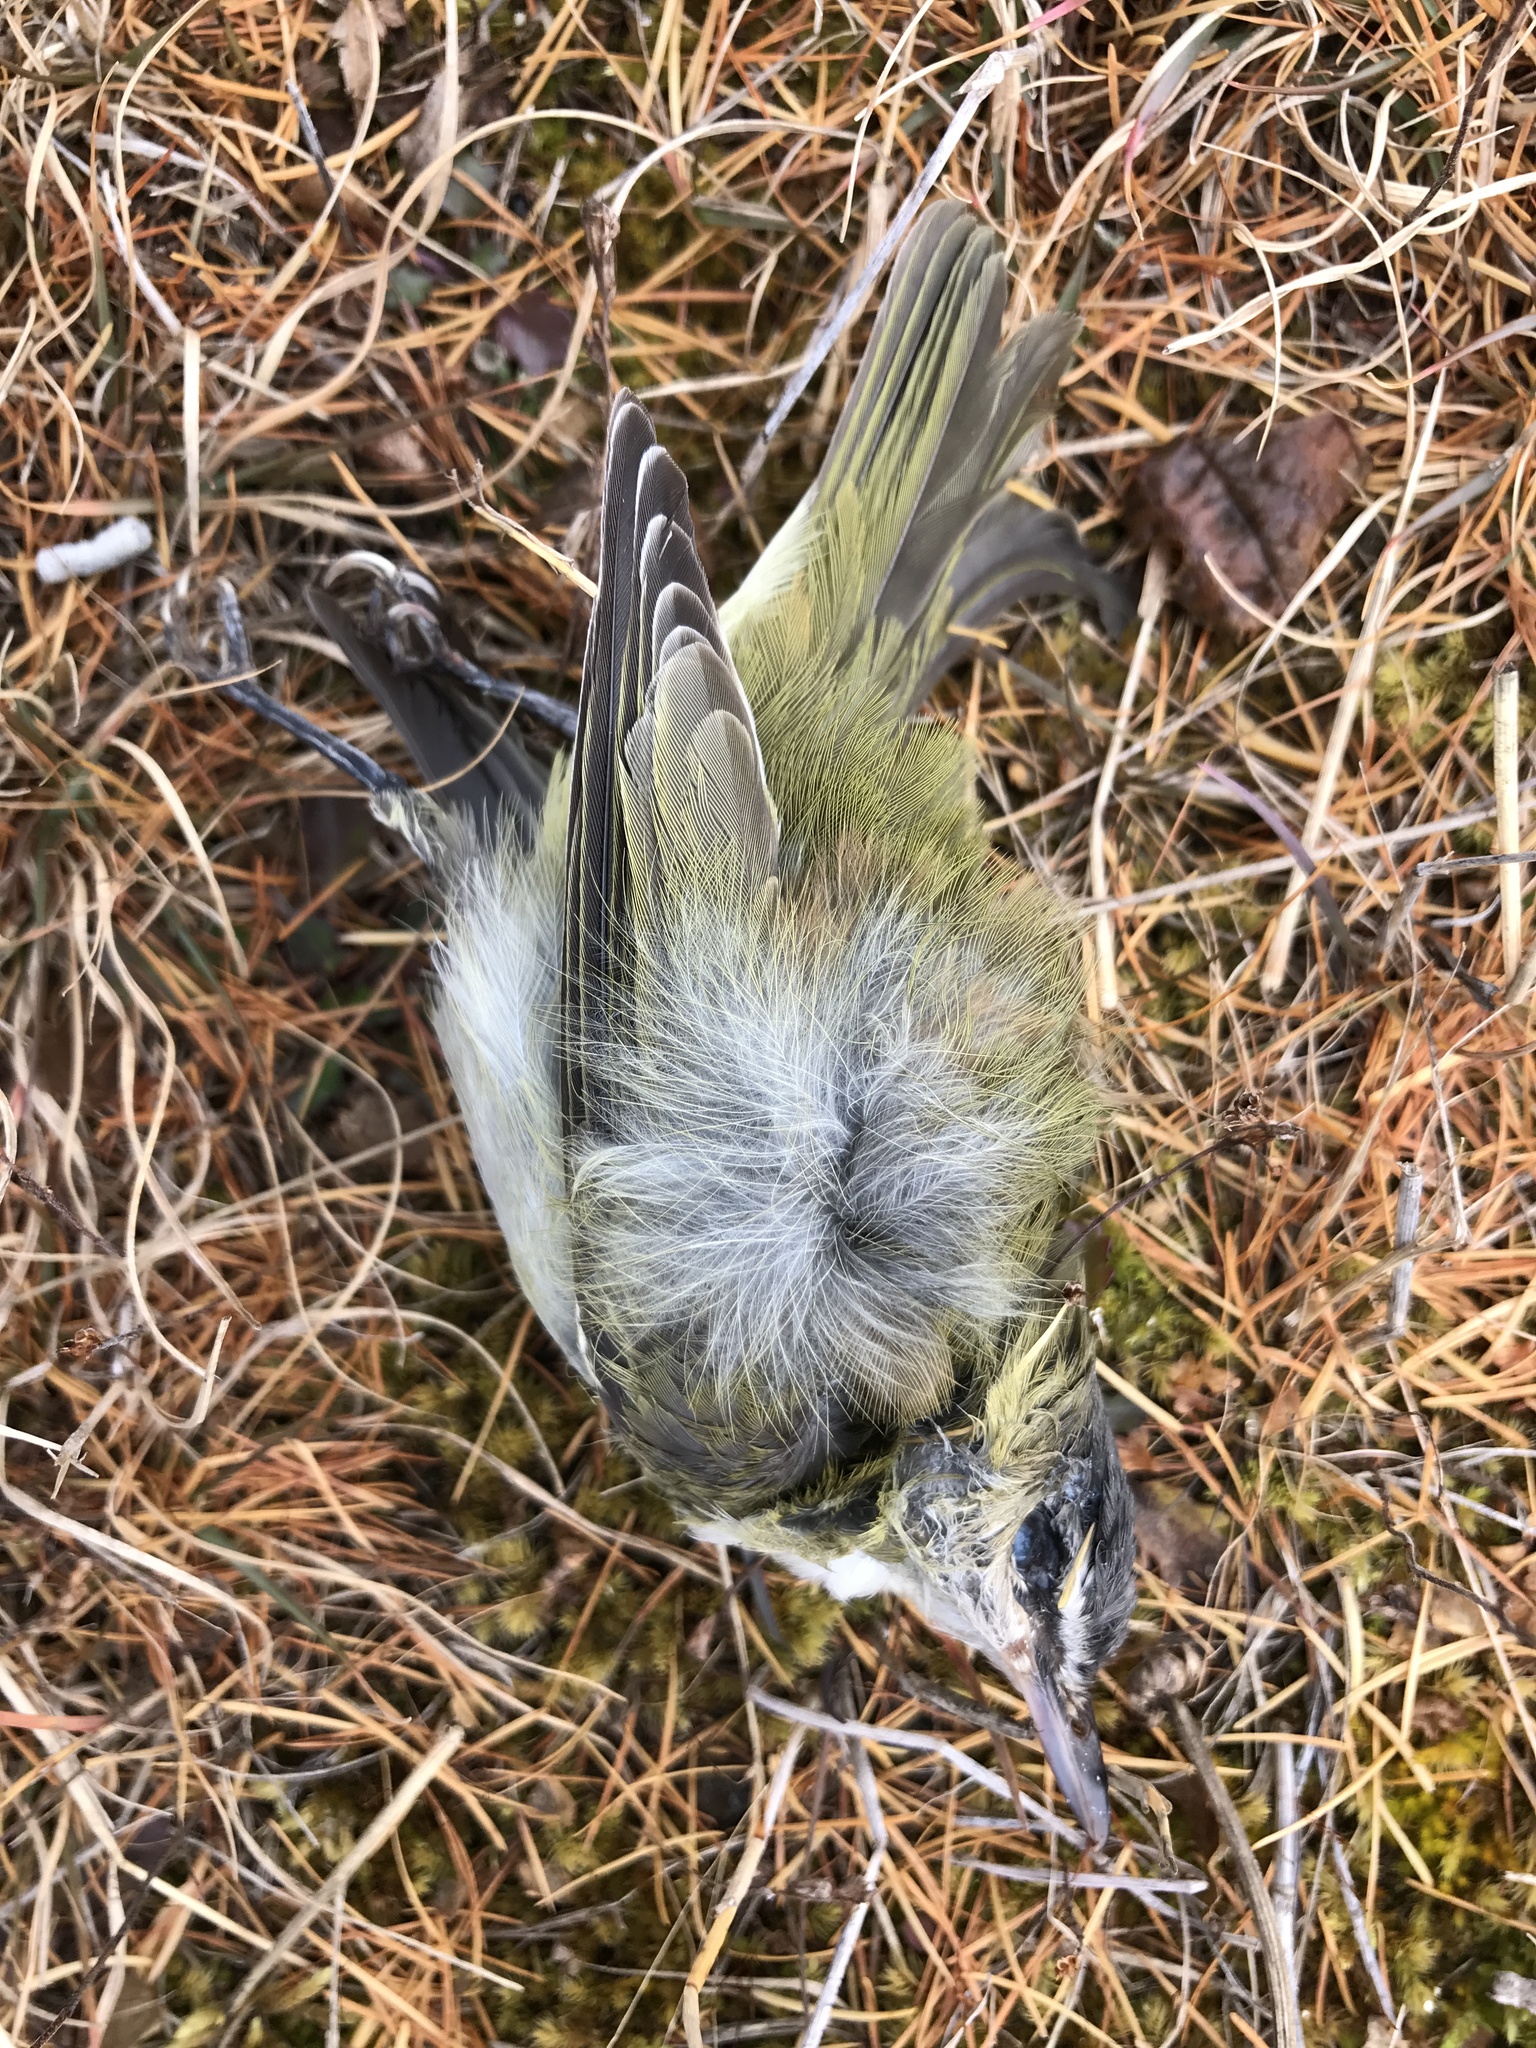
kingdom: Animalia
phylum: Chordata
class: Aves
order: Passeriformes
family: Vireonidae
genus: Vireo
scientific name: Vireo olivaceus
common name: Red-eyed vireo
